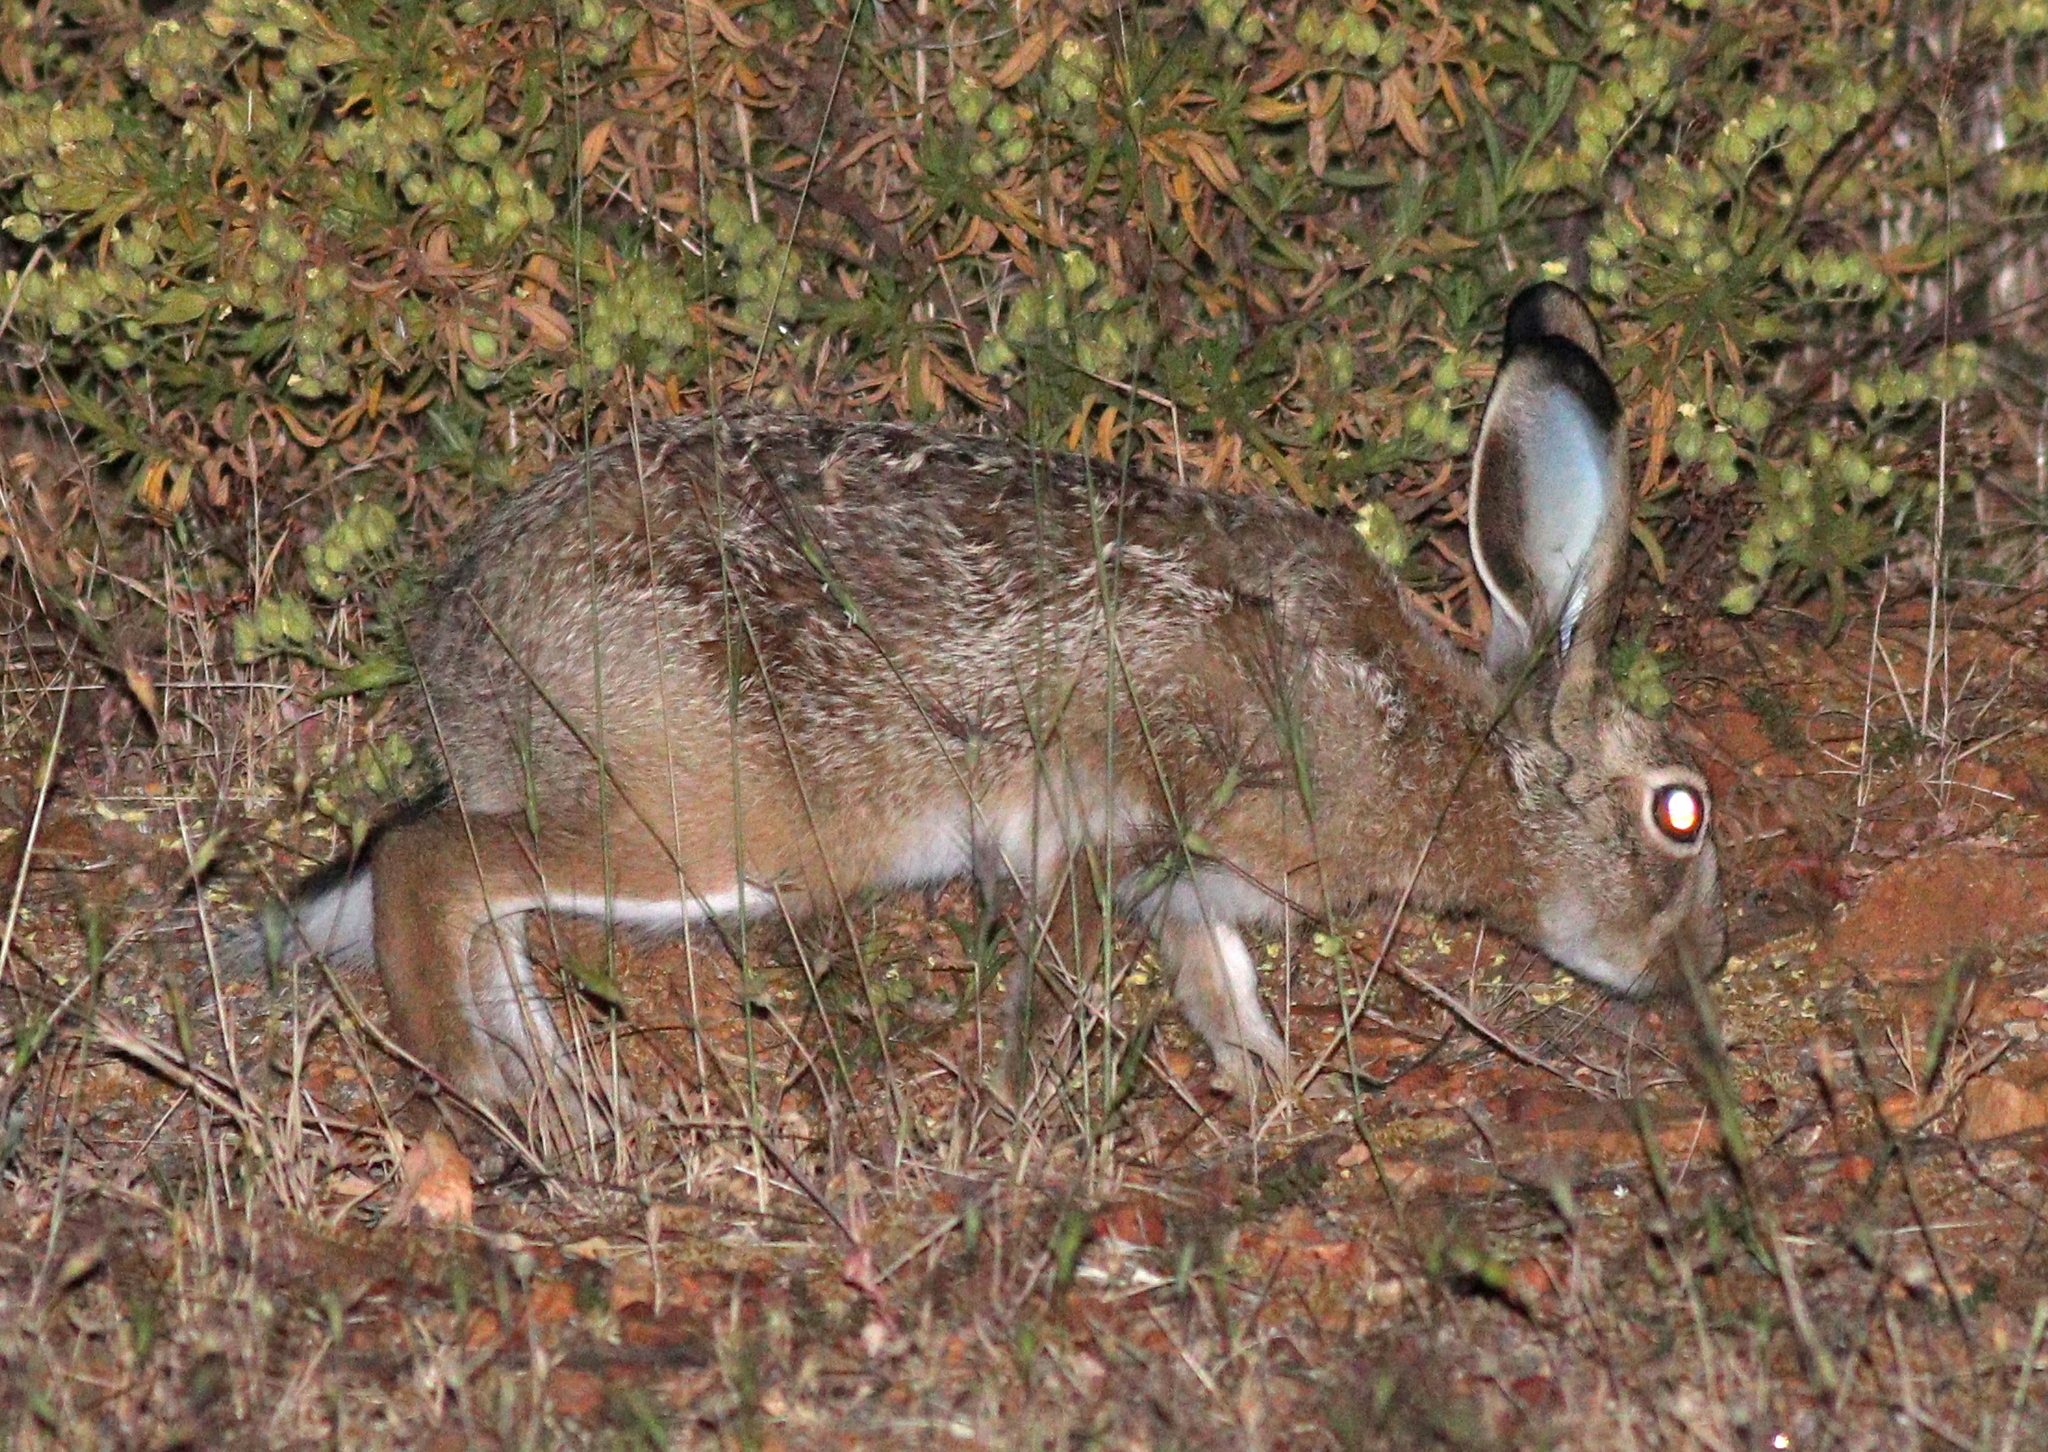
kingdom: Animalia
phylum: Chordata
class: Mammalia
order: Lagomorpha
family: Leporidae
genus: Lepus
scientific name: Lepus granatensis
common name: Granada hare
